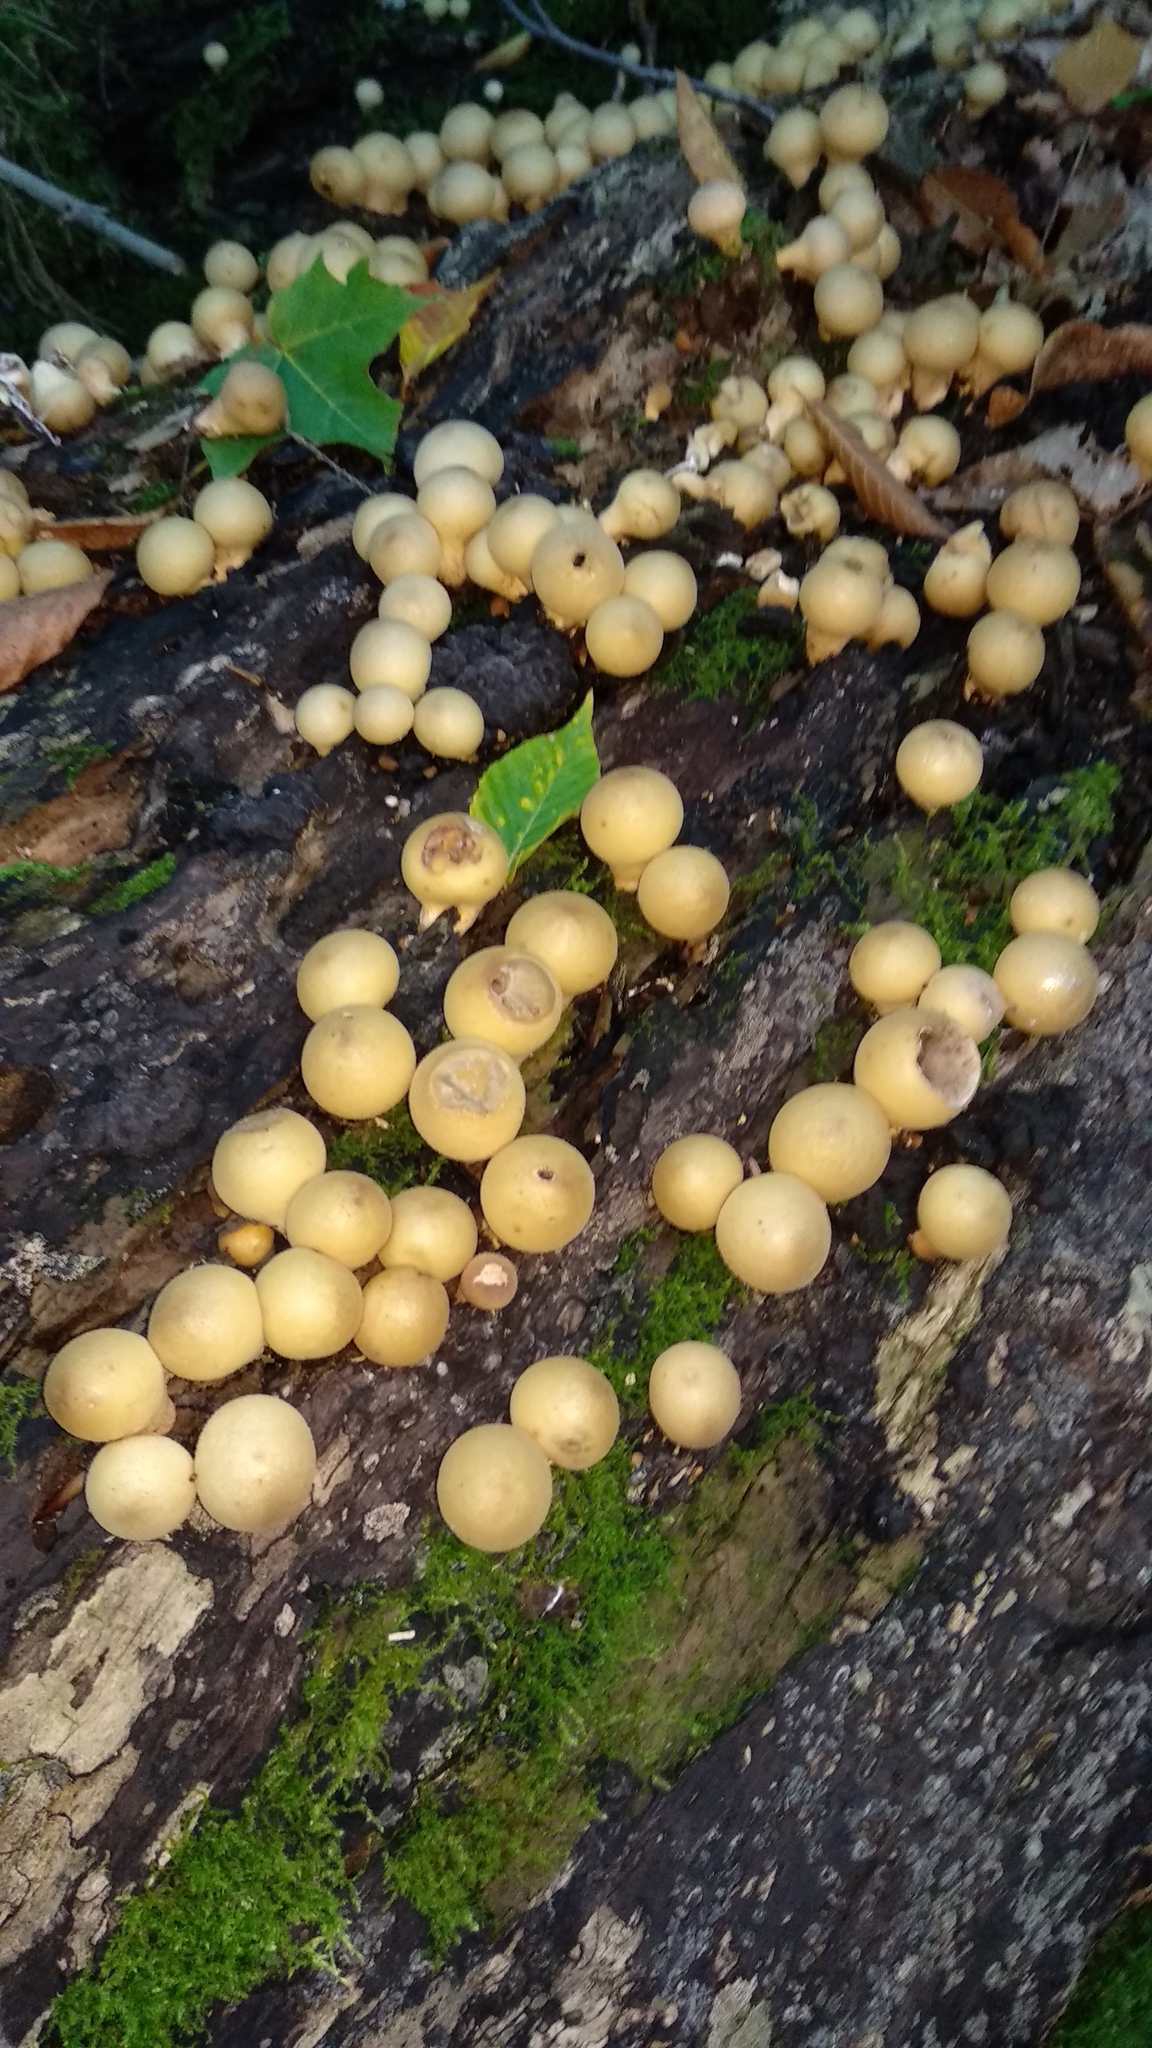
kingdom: Fungi
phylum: Basidiomycota
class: Agaricomycetes
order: Agaricales
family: Lycoperdaceae
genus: Apioperdon
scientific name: Apioperdon pyriforme
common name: Pear-shaped puffball
